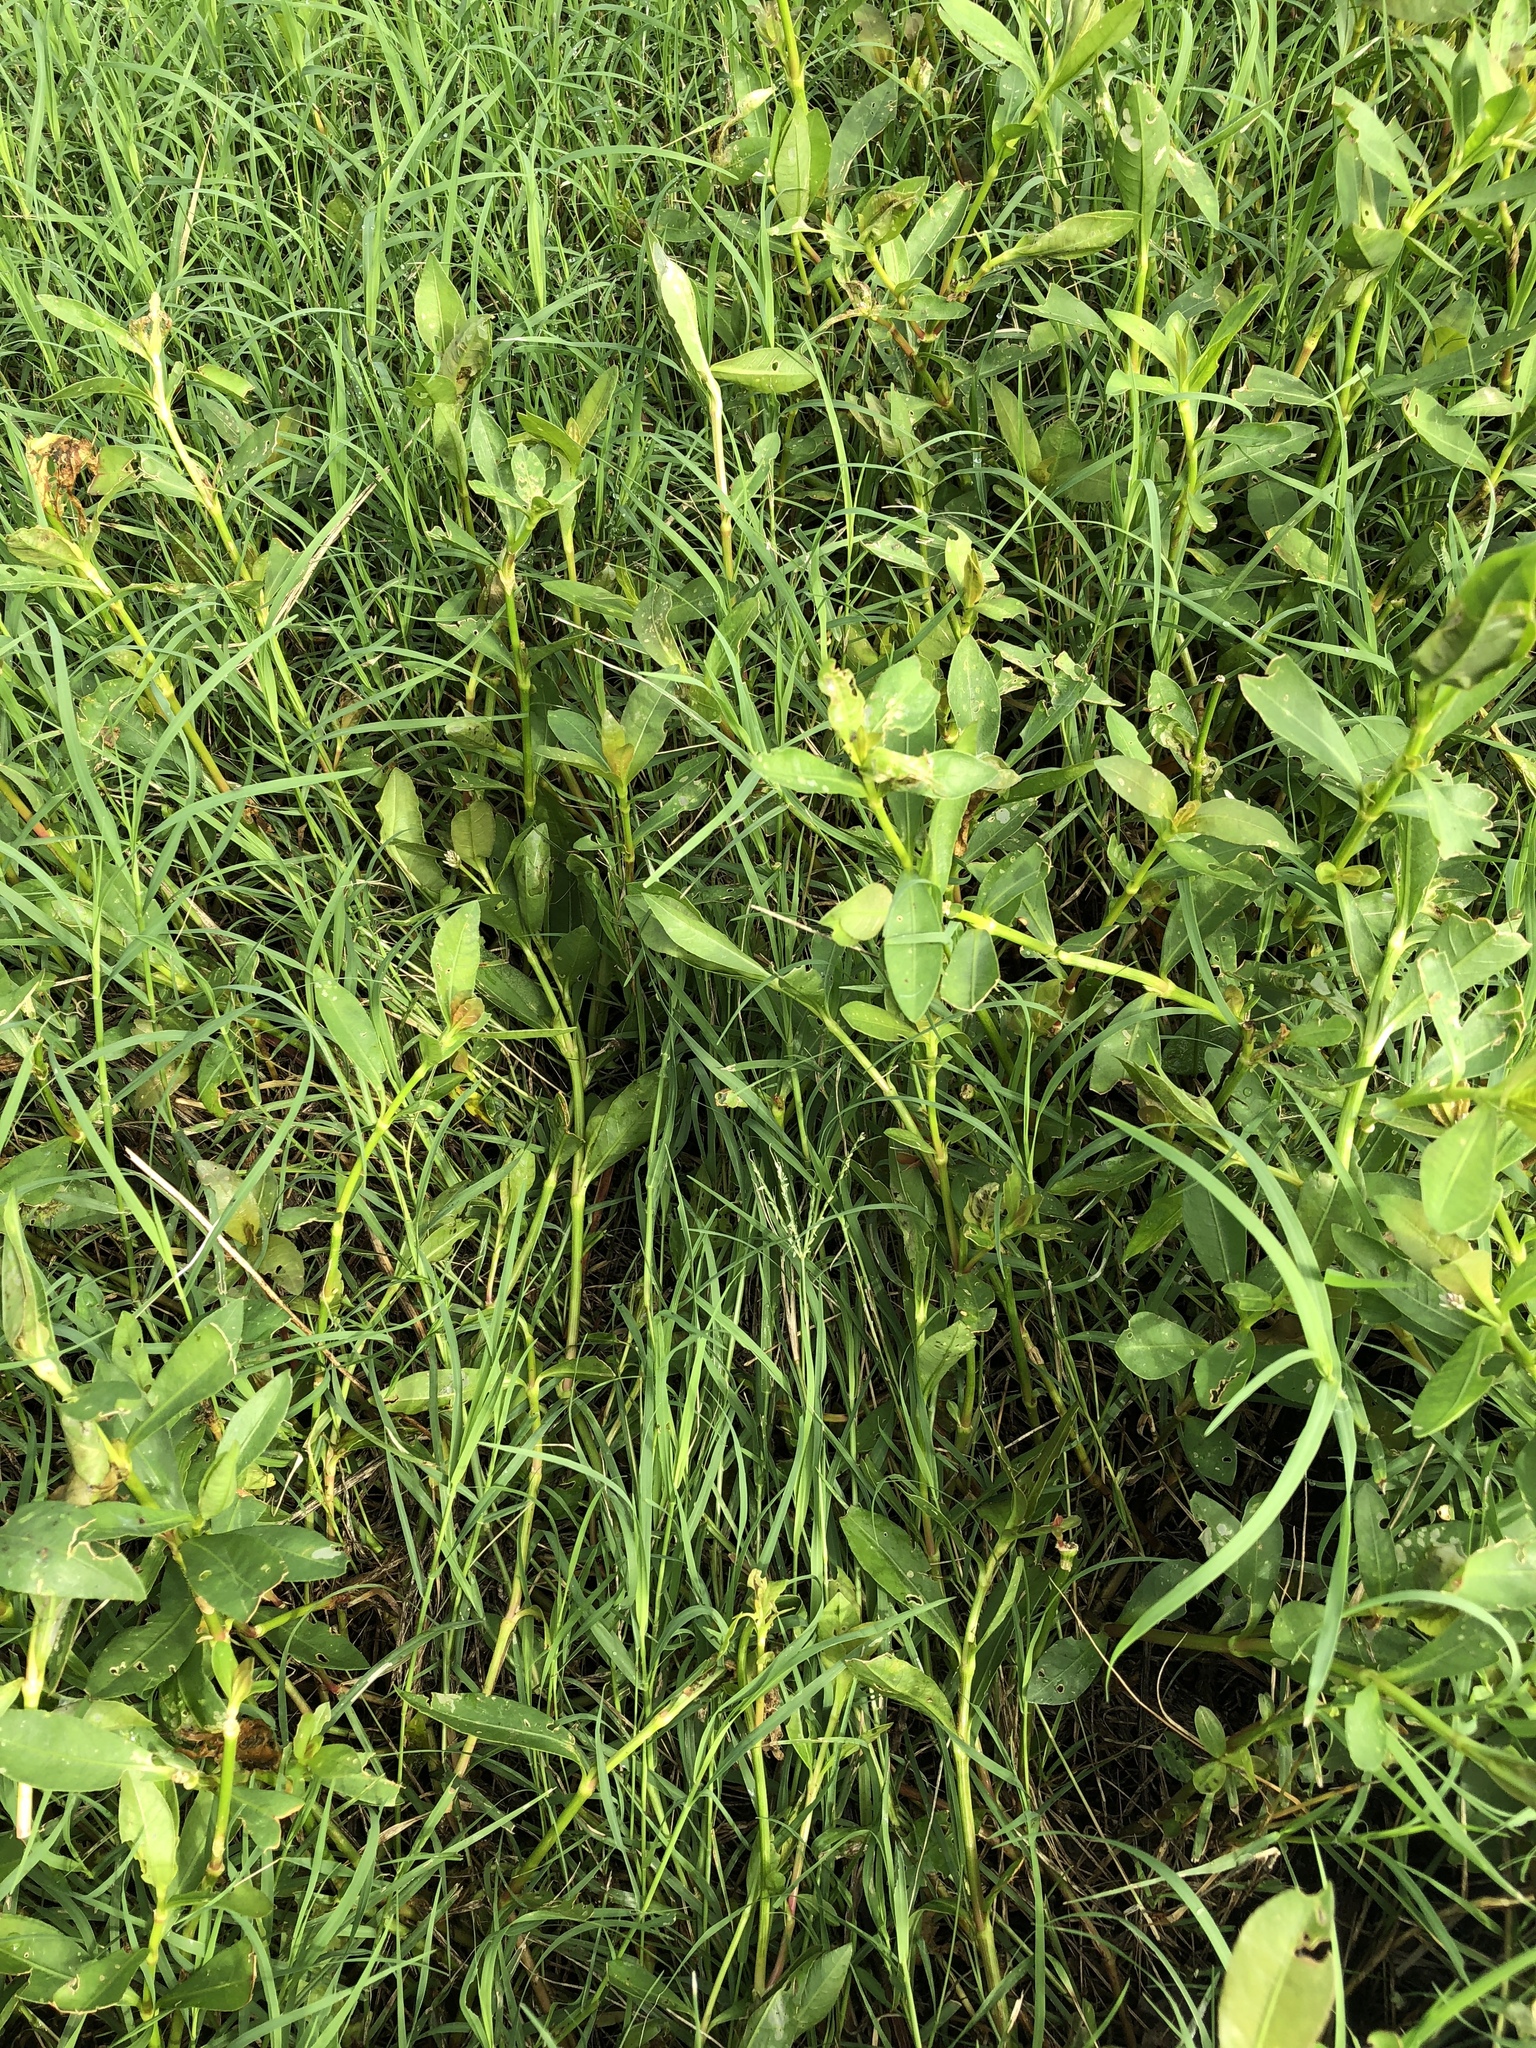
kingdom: Plantae
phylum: Tracheophyta
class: Magnoliopsida
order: Caryophyllales
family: Amaranthaceae
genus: Alternanthera
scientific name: Alternanthera philoxeroides
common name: Alligatorweed
